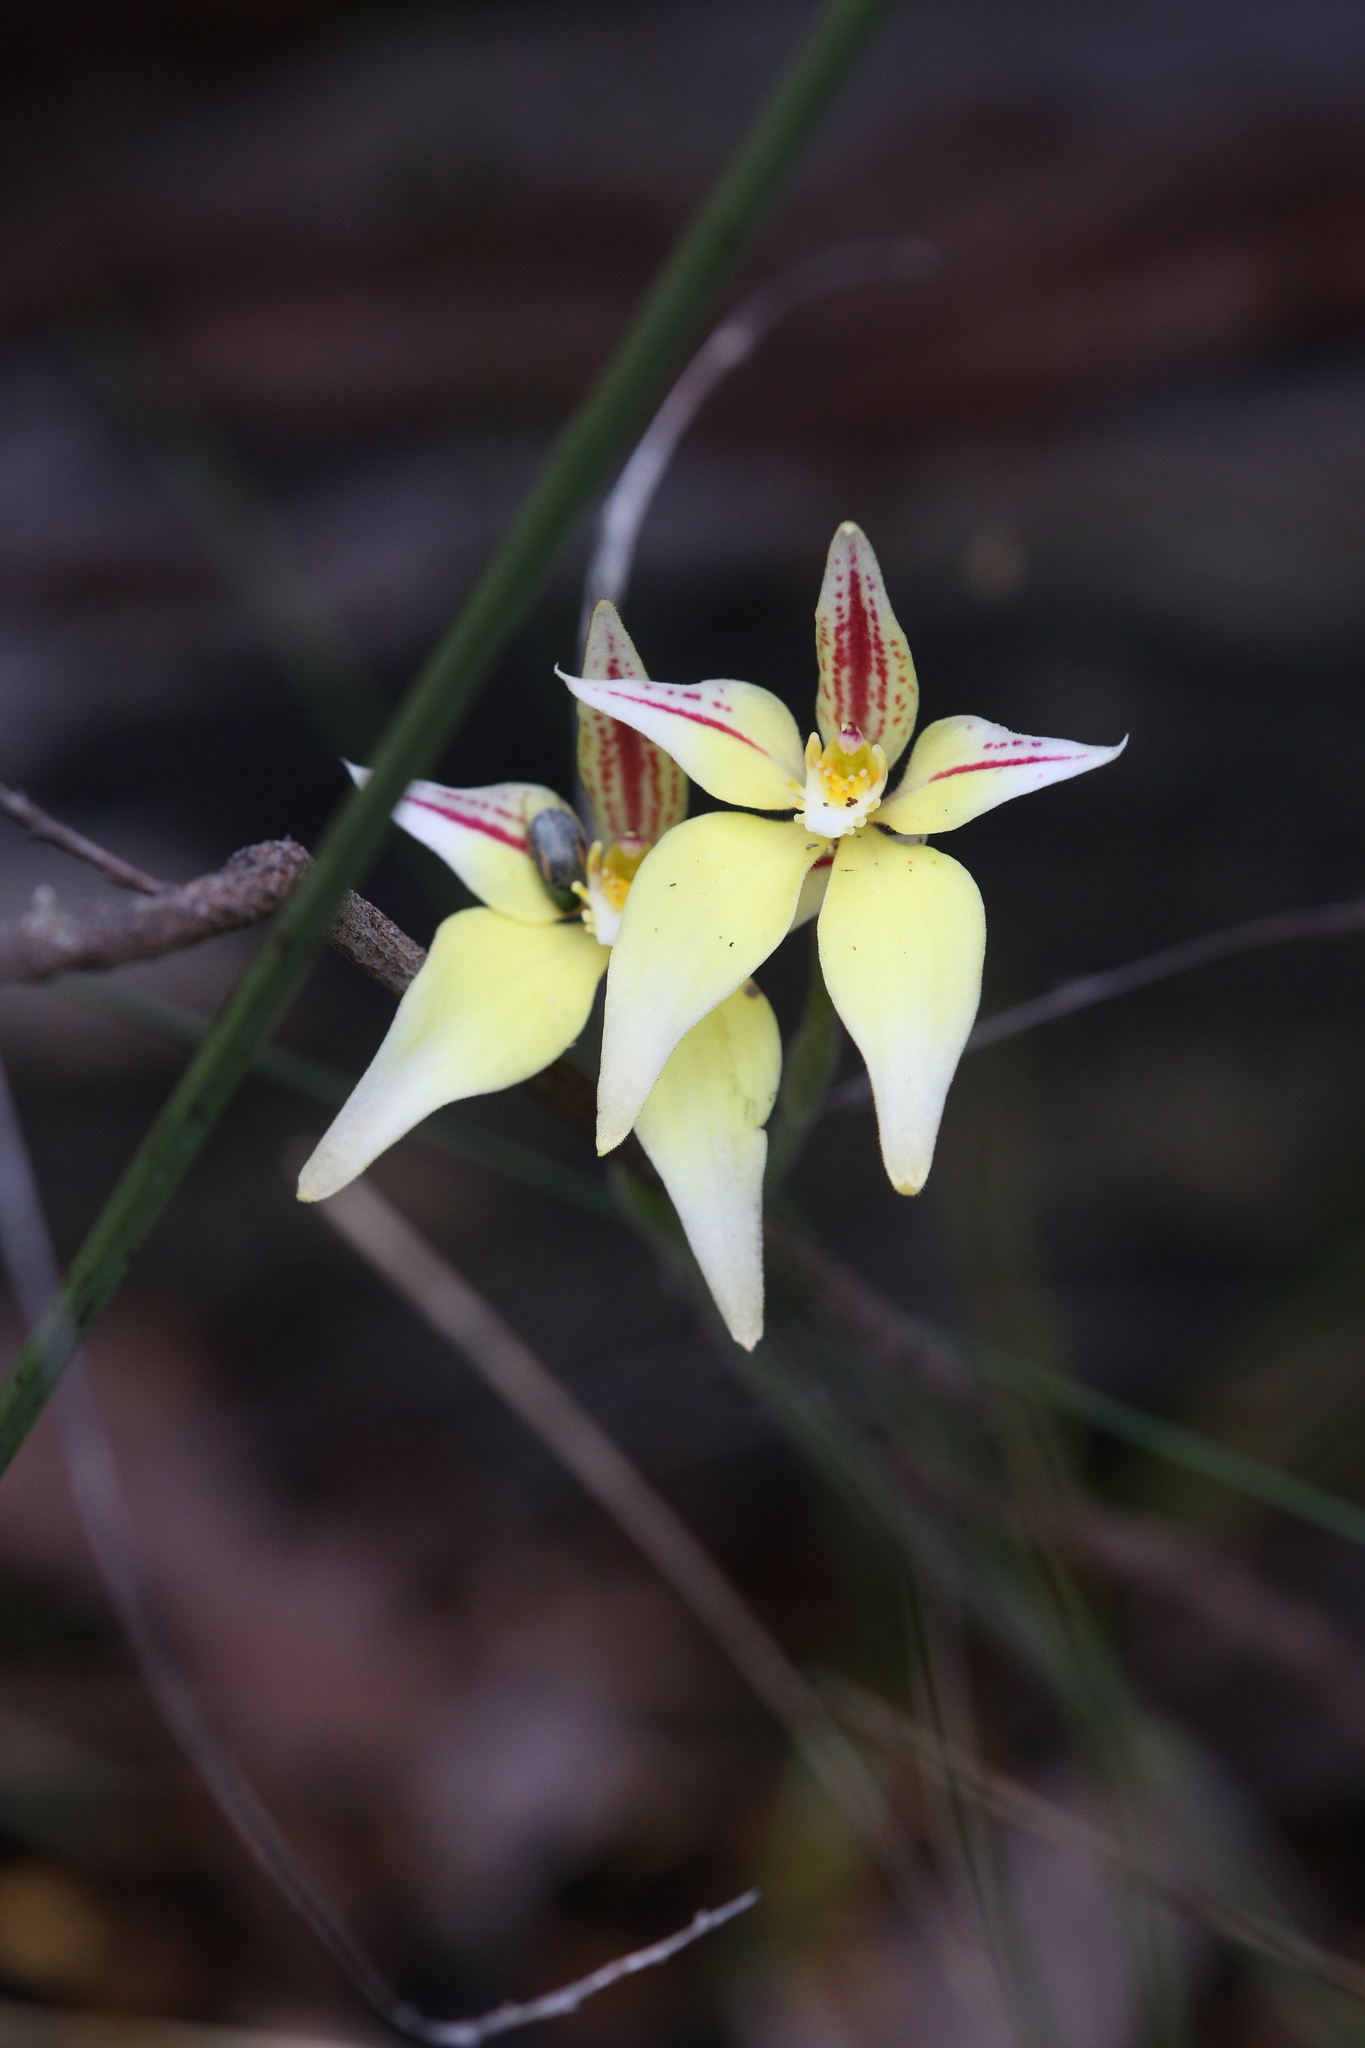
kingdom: Plantae
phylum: Tracheophyta
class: Liliopsida
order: Asparagales
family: Orchidaceae
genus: Caladenia
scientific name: Caladenia flava
